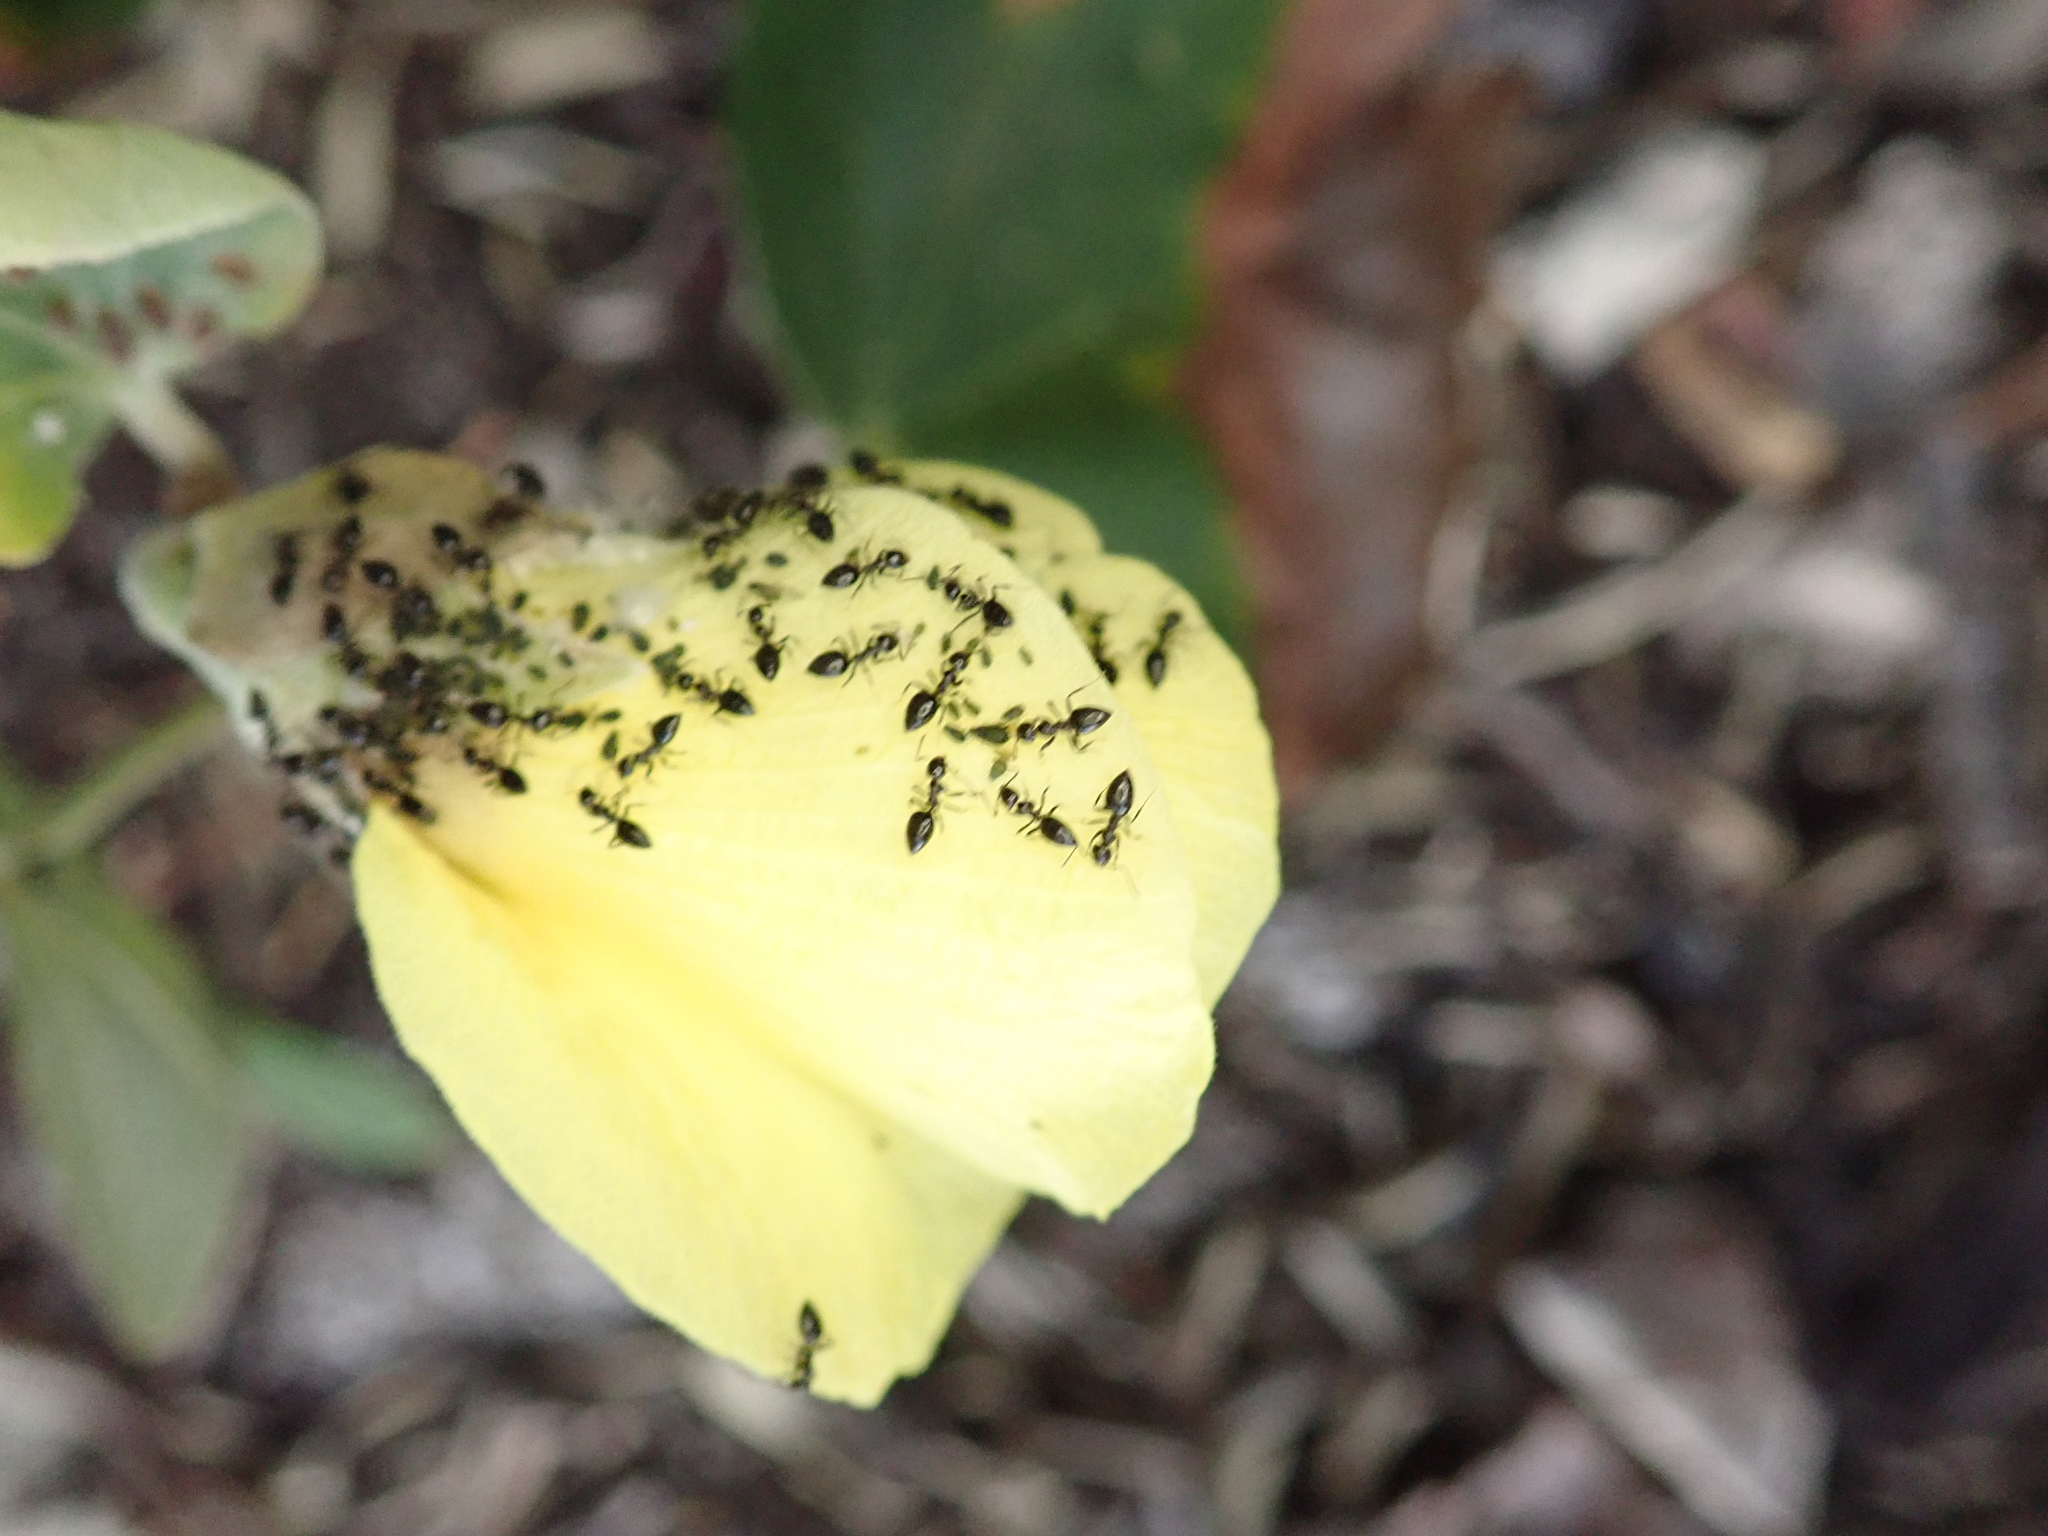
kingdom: Plantae
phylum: Tracheophyta
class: Magnoliopsida
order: Malvales
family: Malvaceae
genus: Talipariti
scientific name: Talipariti tiliaceum
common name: Sea hibiscus
